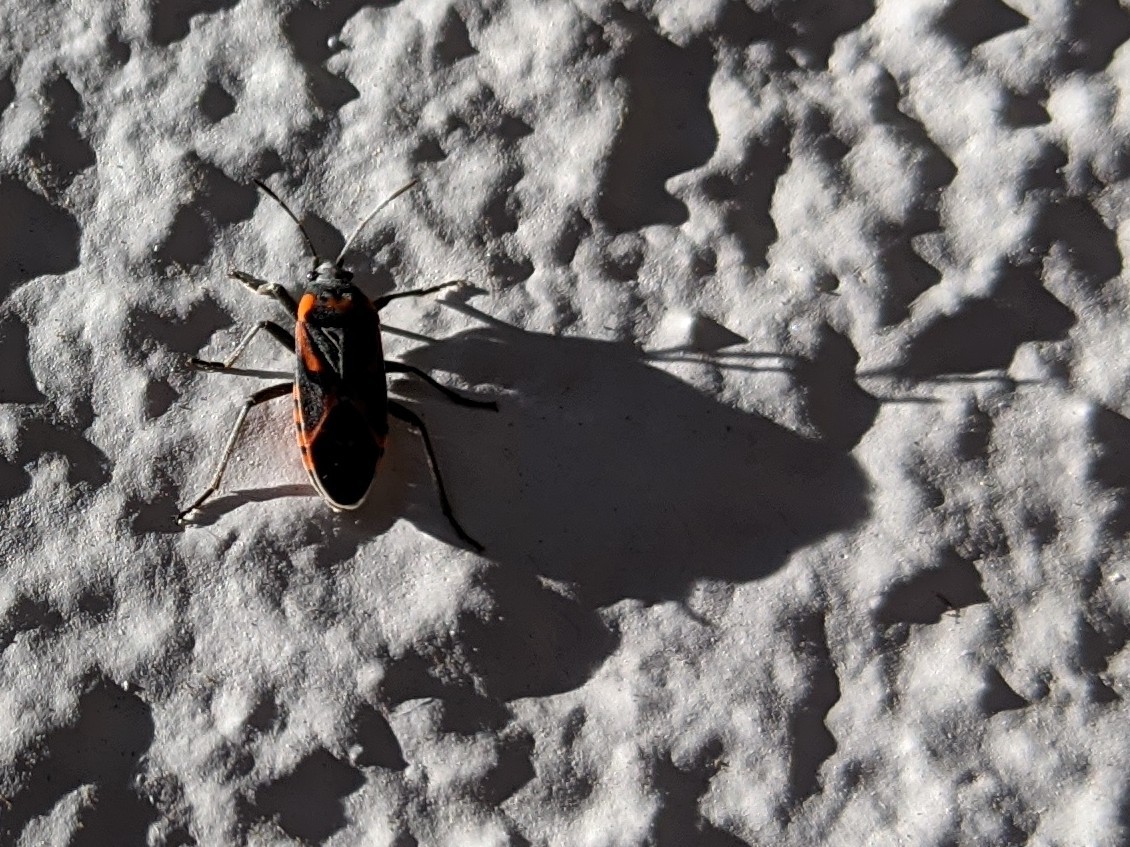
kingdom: Animalia
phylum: Arthropoda
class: Insecta
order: Hemiptera
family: Lygaeidae
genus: Lygaeus
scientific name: Lygaeus kalmii
